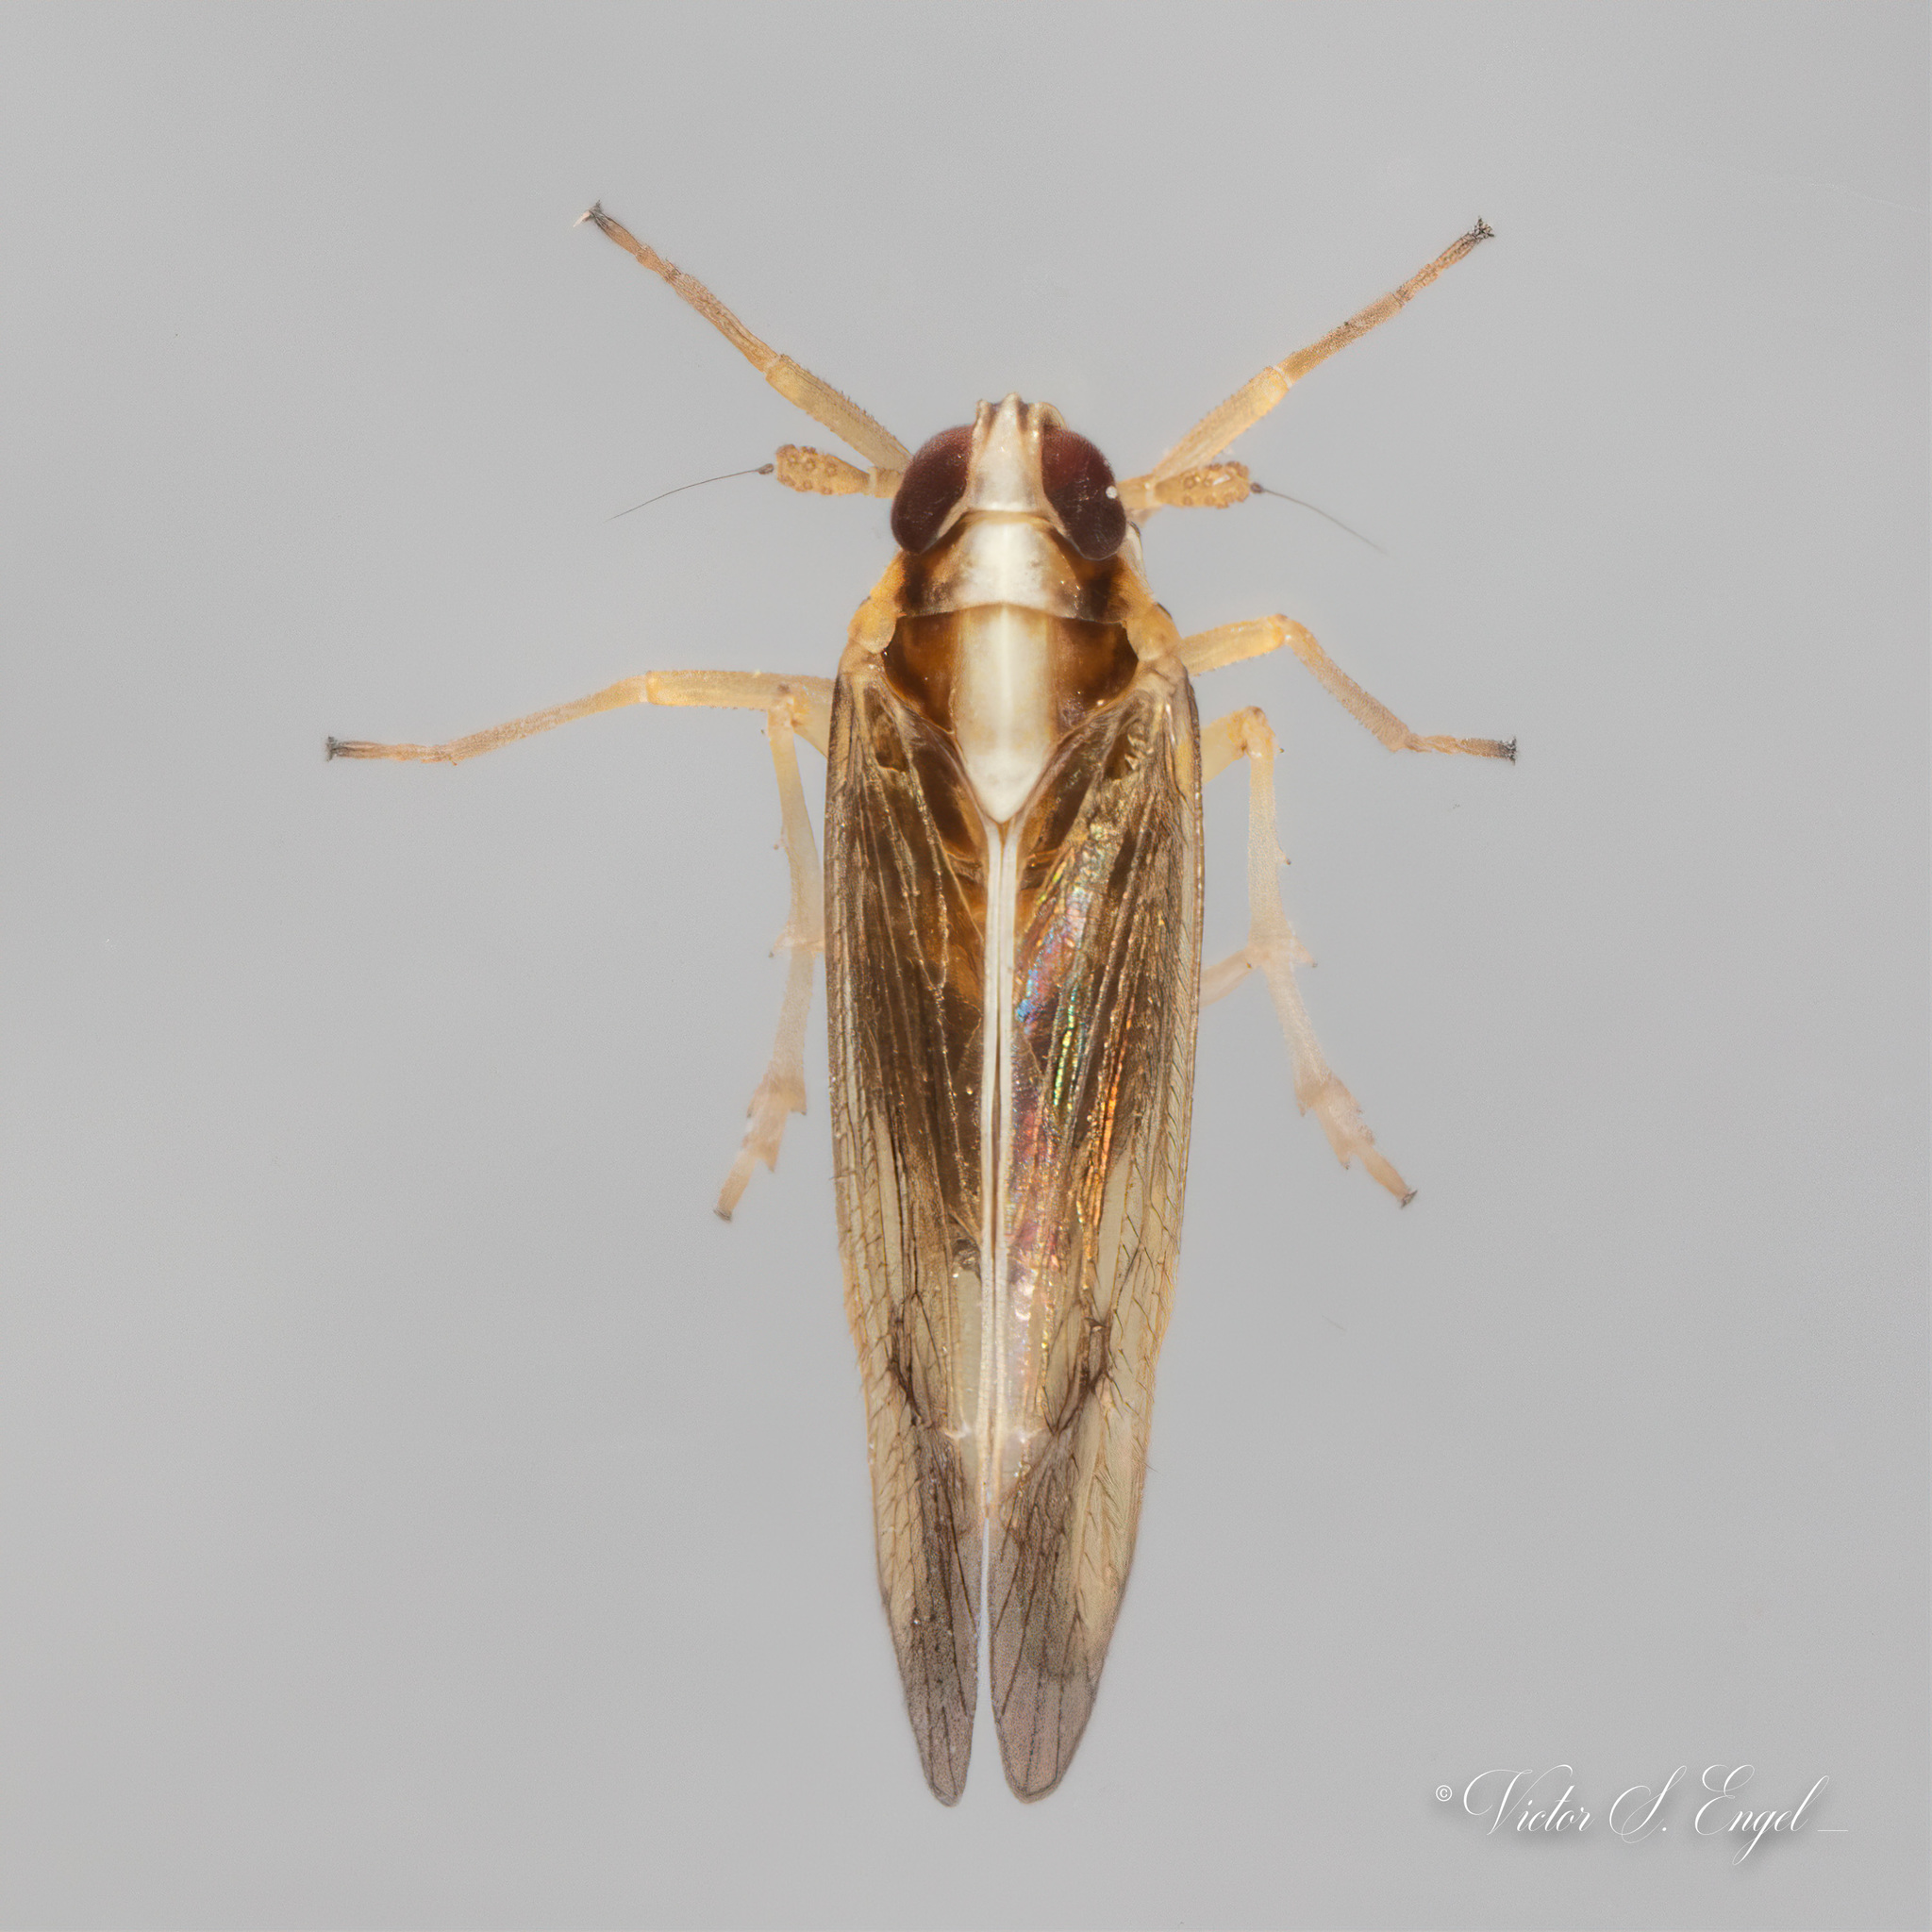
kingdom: Animalia
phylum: Arthropoda
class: Insecta
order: Hemiptera
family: Delphacidae
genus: Tagosodes
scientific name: Tagosodes orizicolus
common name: Delphacid planthopper
